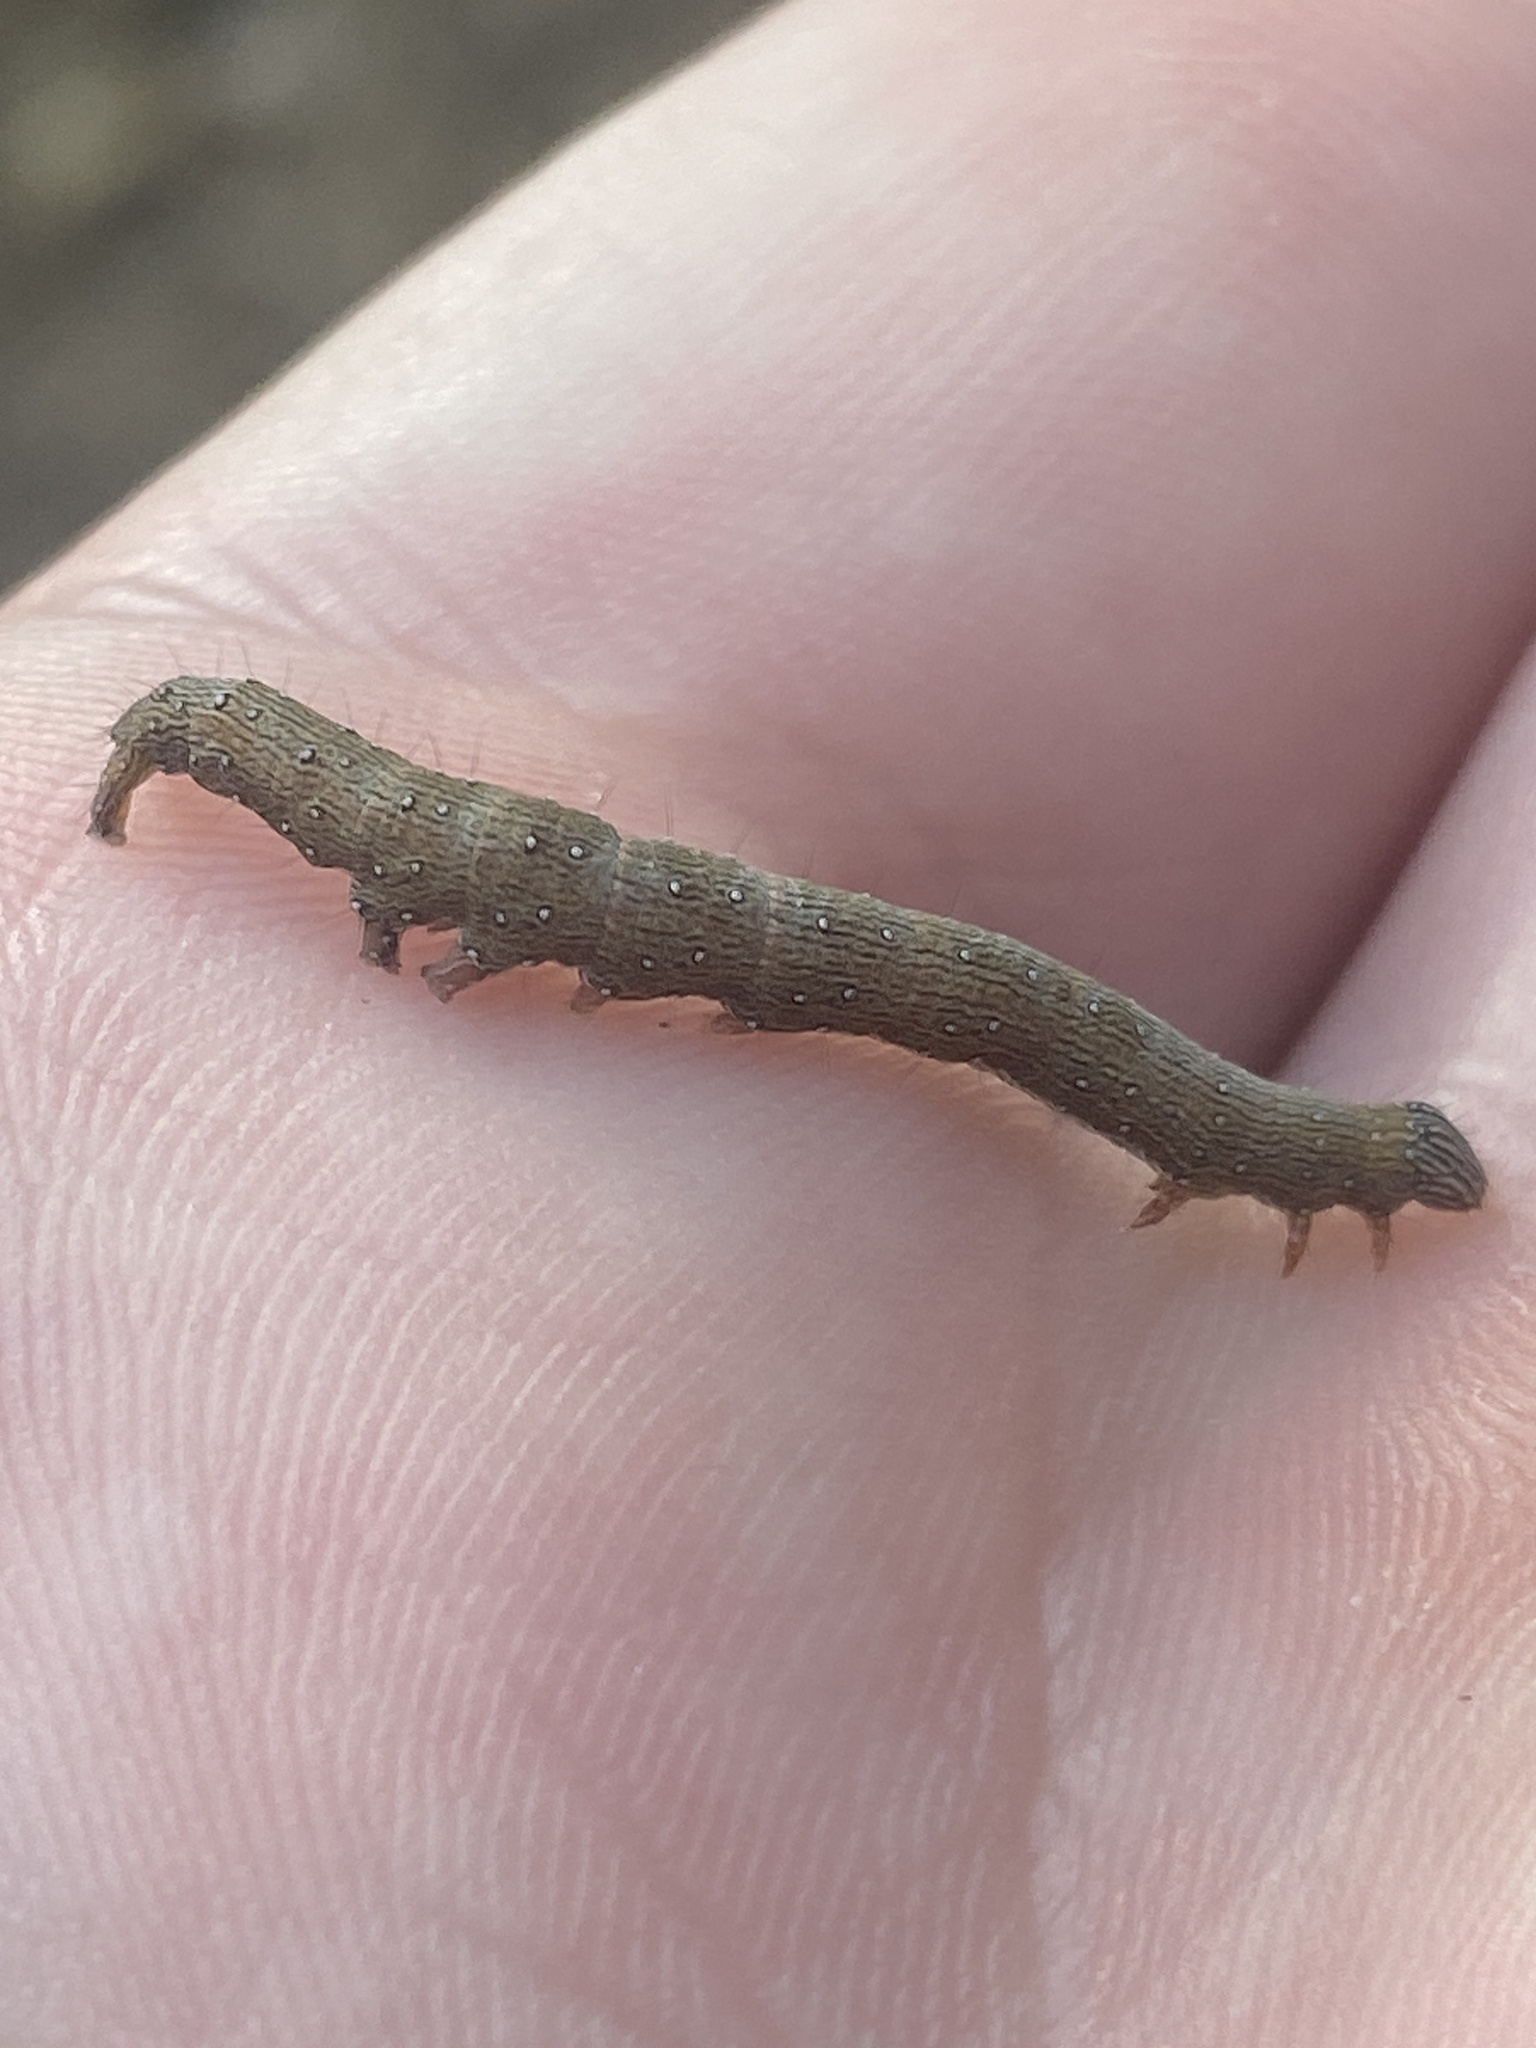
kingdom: Animalia
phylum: Arthropoda
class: Insecta
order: Lepidoptera
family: Erebidae
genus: Catocala
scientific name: Catocala muliercula
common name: The little wife underwing
